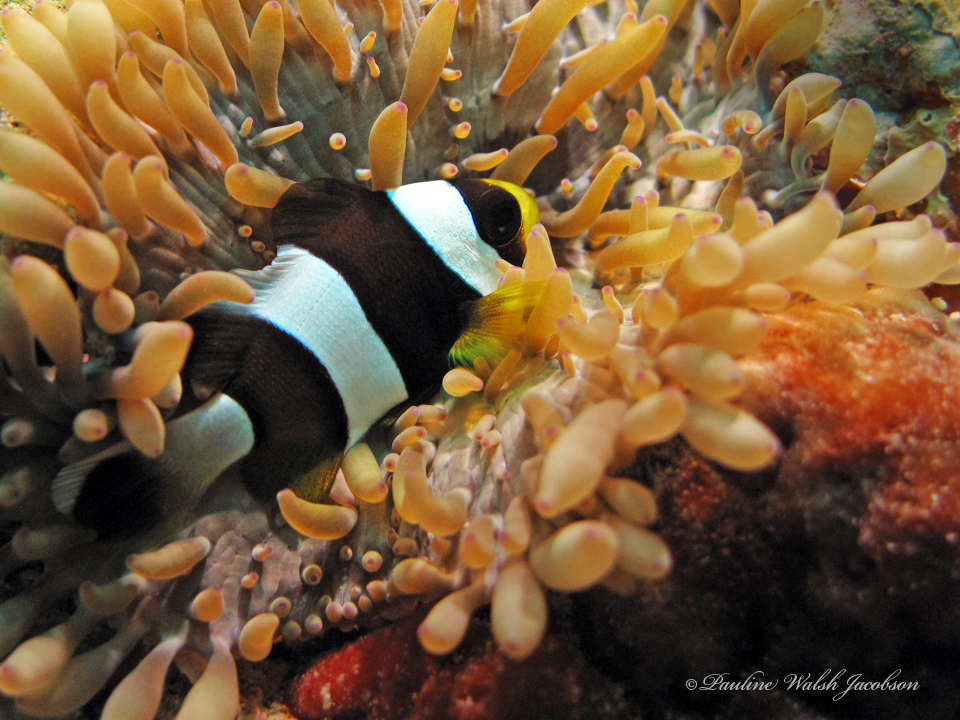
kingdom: Animalia
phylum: Chordata
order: Perciformes
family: Pomacentridae
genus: Amphiprion
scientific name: Amphiprion clarkii
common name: Clark's anemonefish
